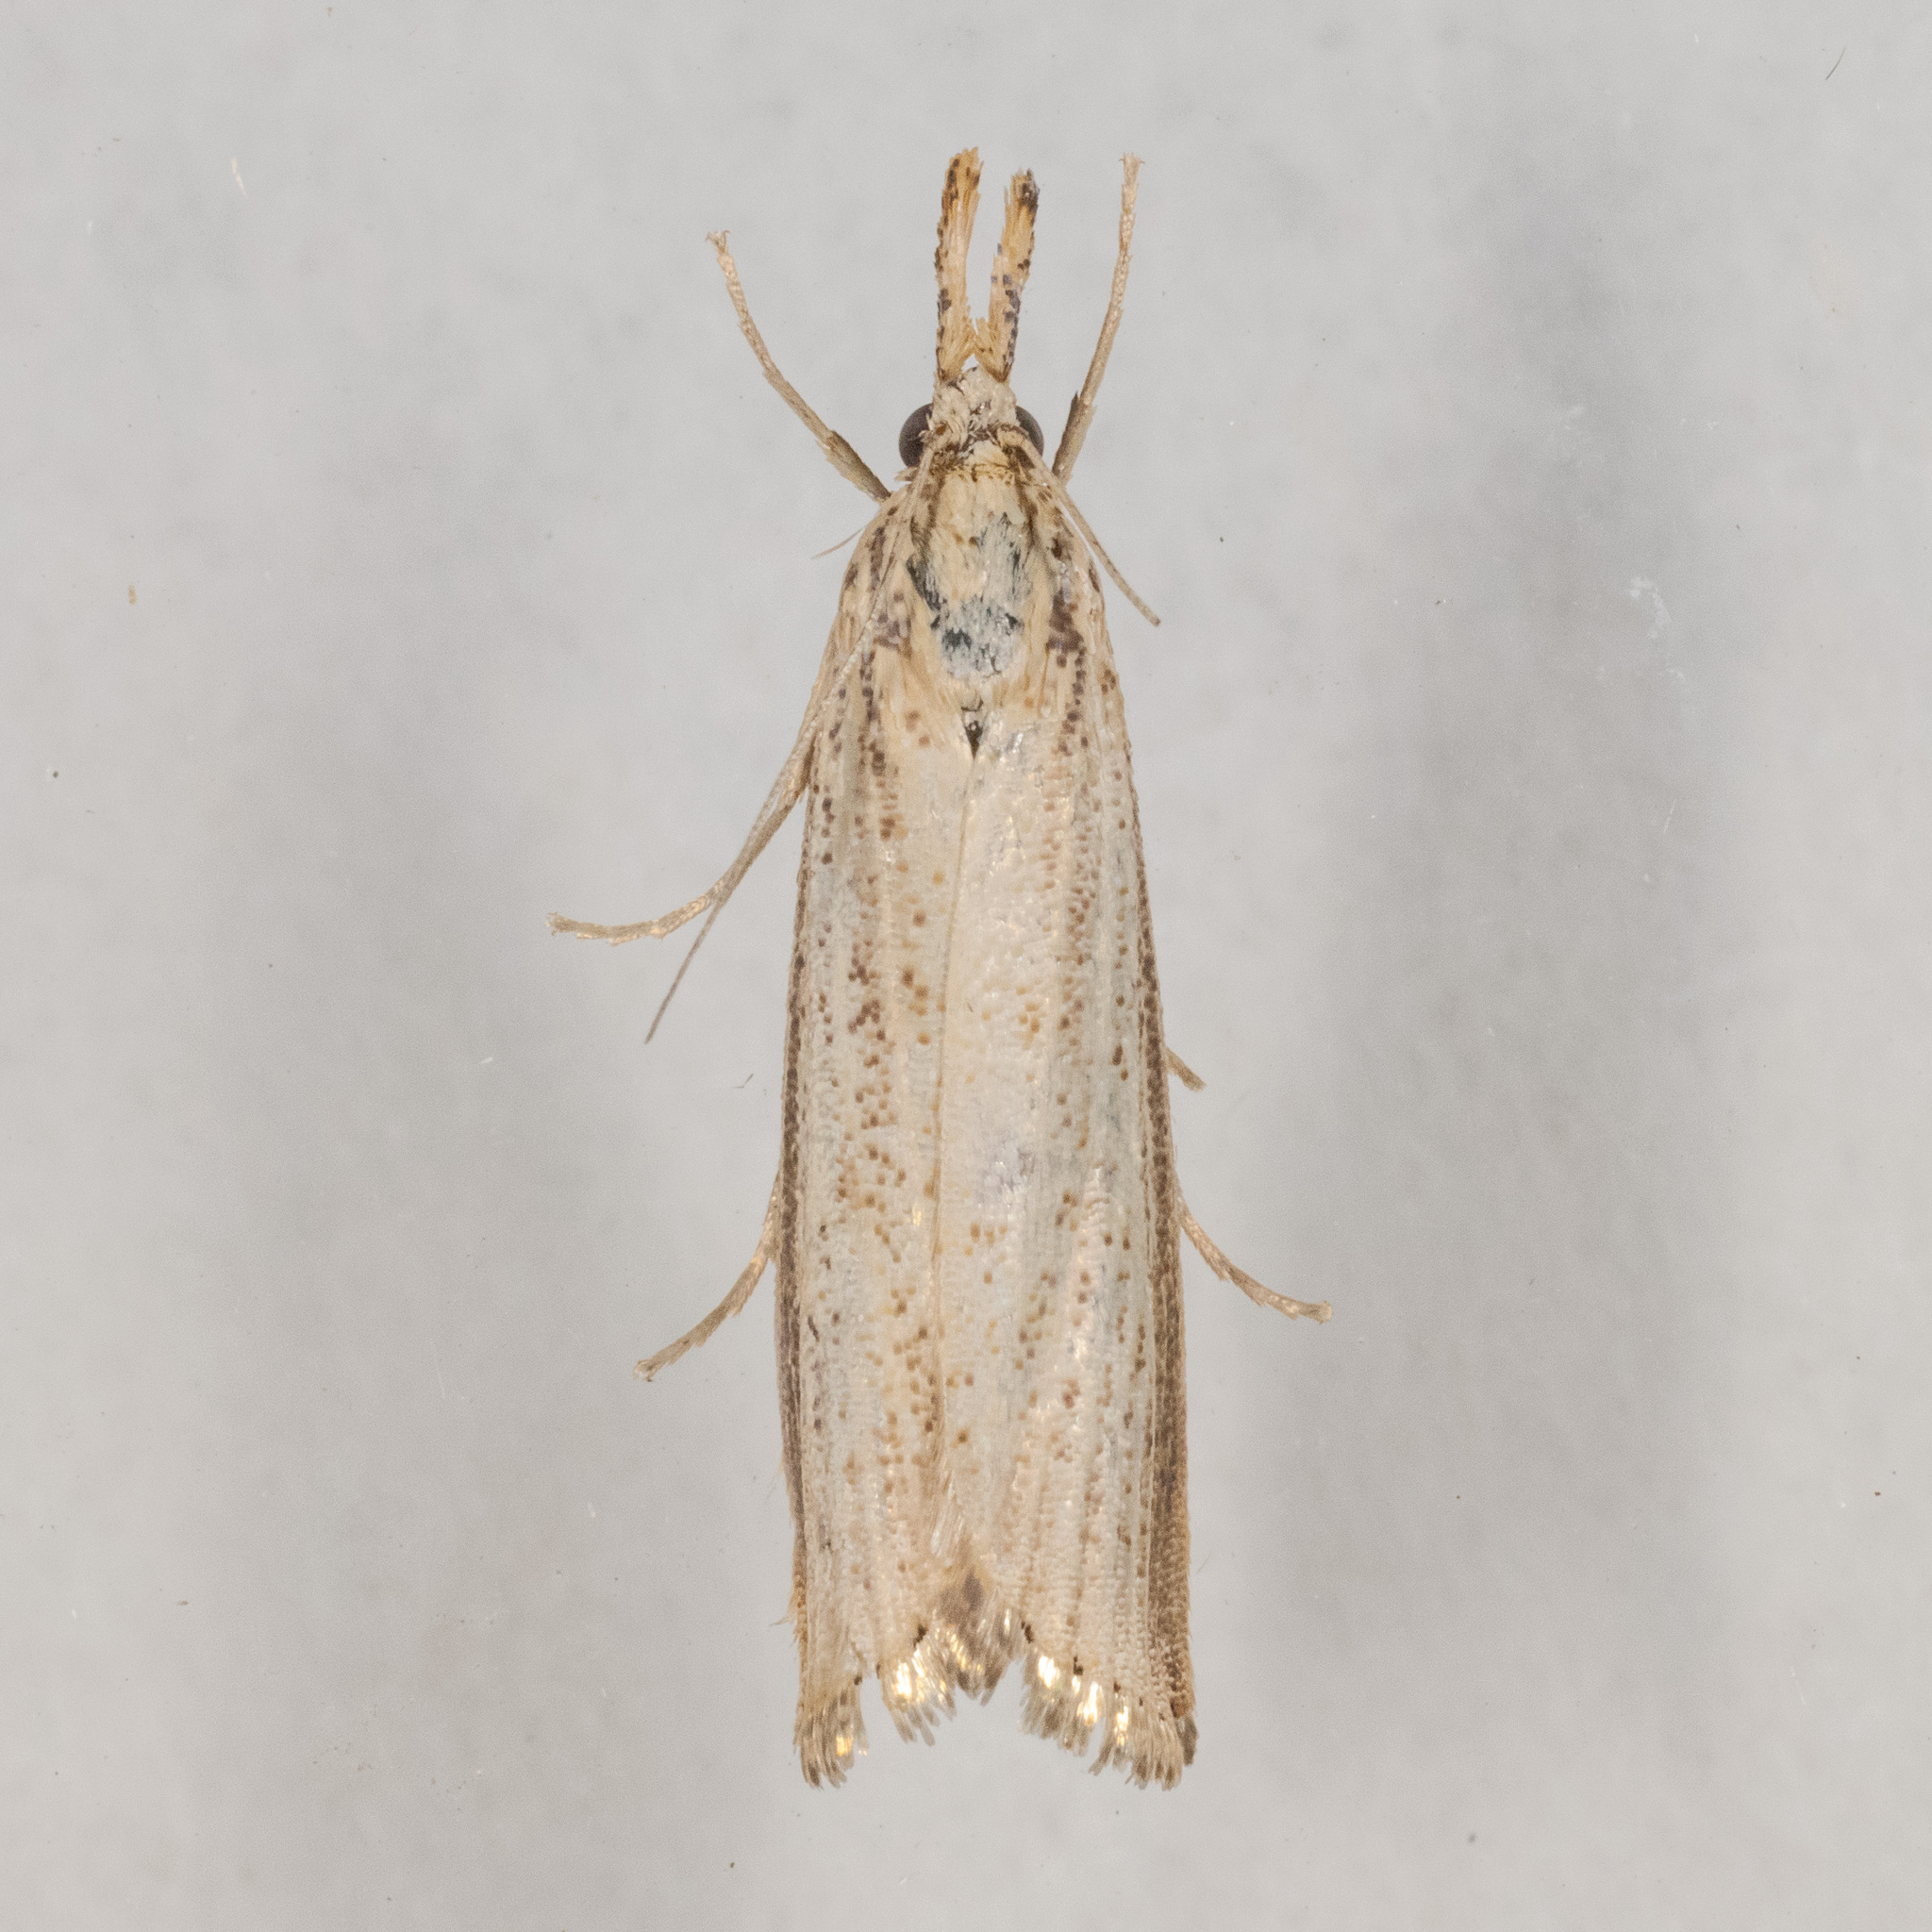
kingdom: Animalia
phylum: Arthropoda
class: Insecta
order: Lepidoptera
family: Crambidae
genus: Agriphila
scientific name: Agriphila vulgivagellus
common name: Vagabond crambus moth
